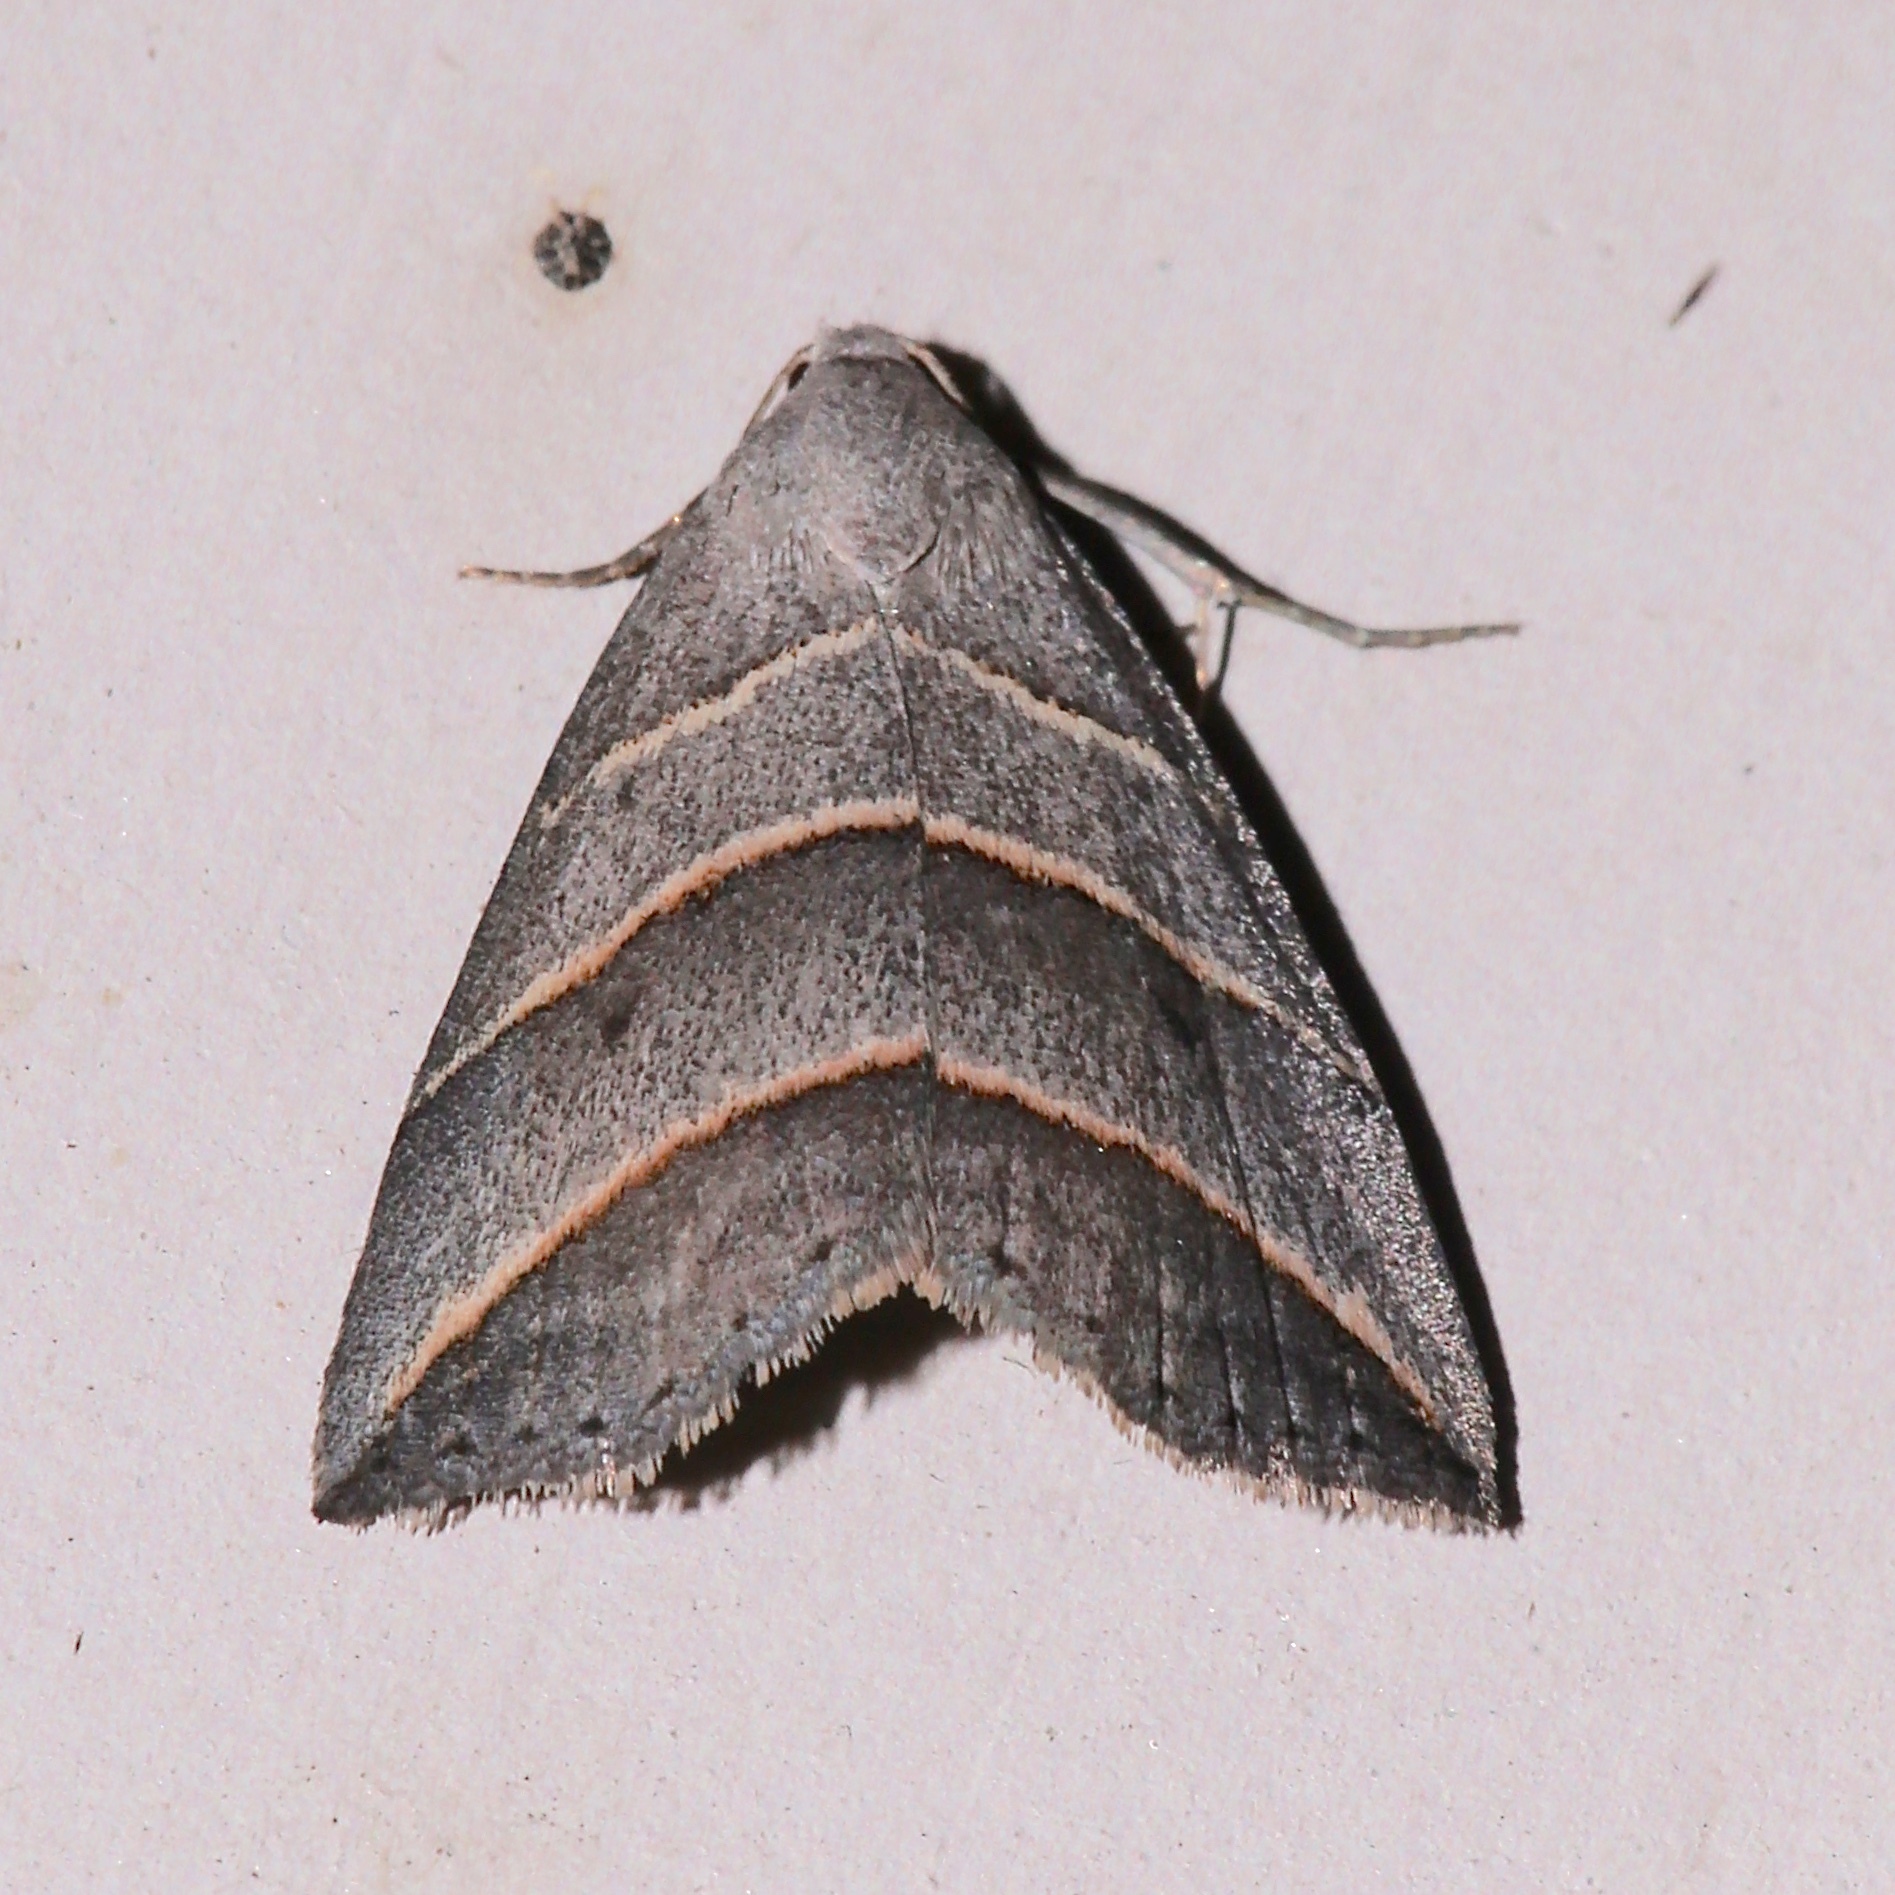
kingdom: Animalia
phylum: Arthropoda
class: Insecta
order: Lepidoptera
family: Erebidae
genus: Colobochyla
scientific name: Colobochyla interpuncta
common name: Yellow-lined owlet
